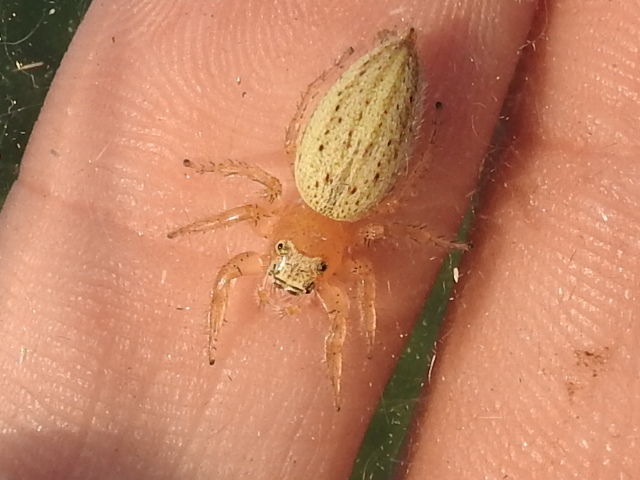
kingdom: Animalia
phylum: Arthropoda
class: Arachnida
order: Araneae
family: Salticidae
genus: Colonus
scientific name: Colonus puerperus
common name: Jumping spiders
